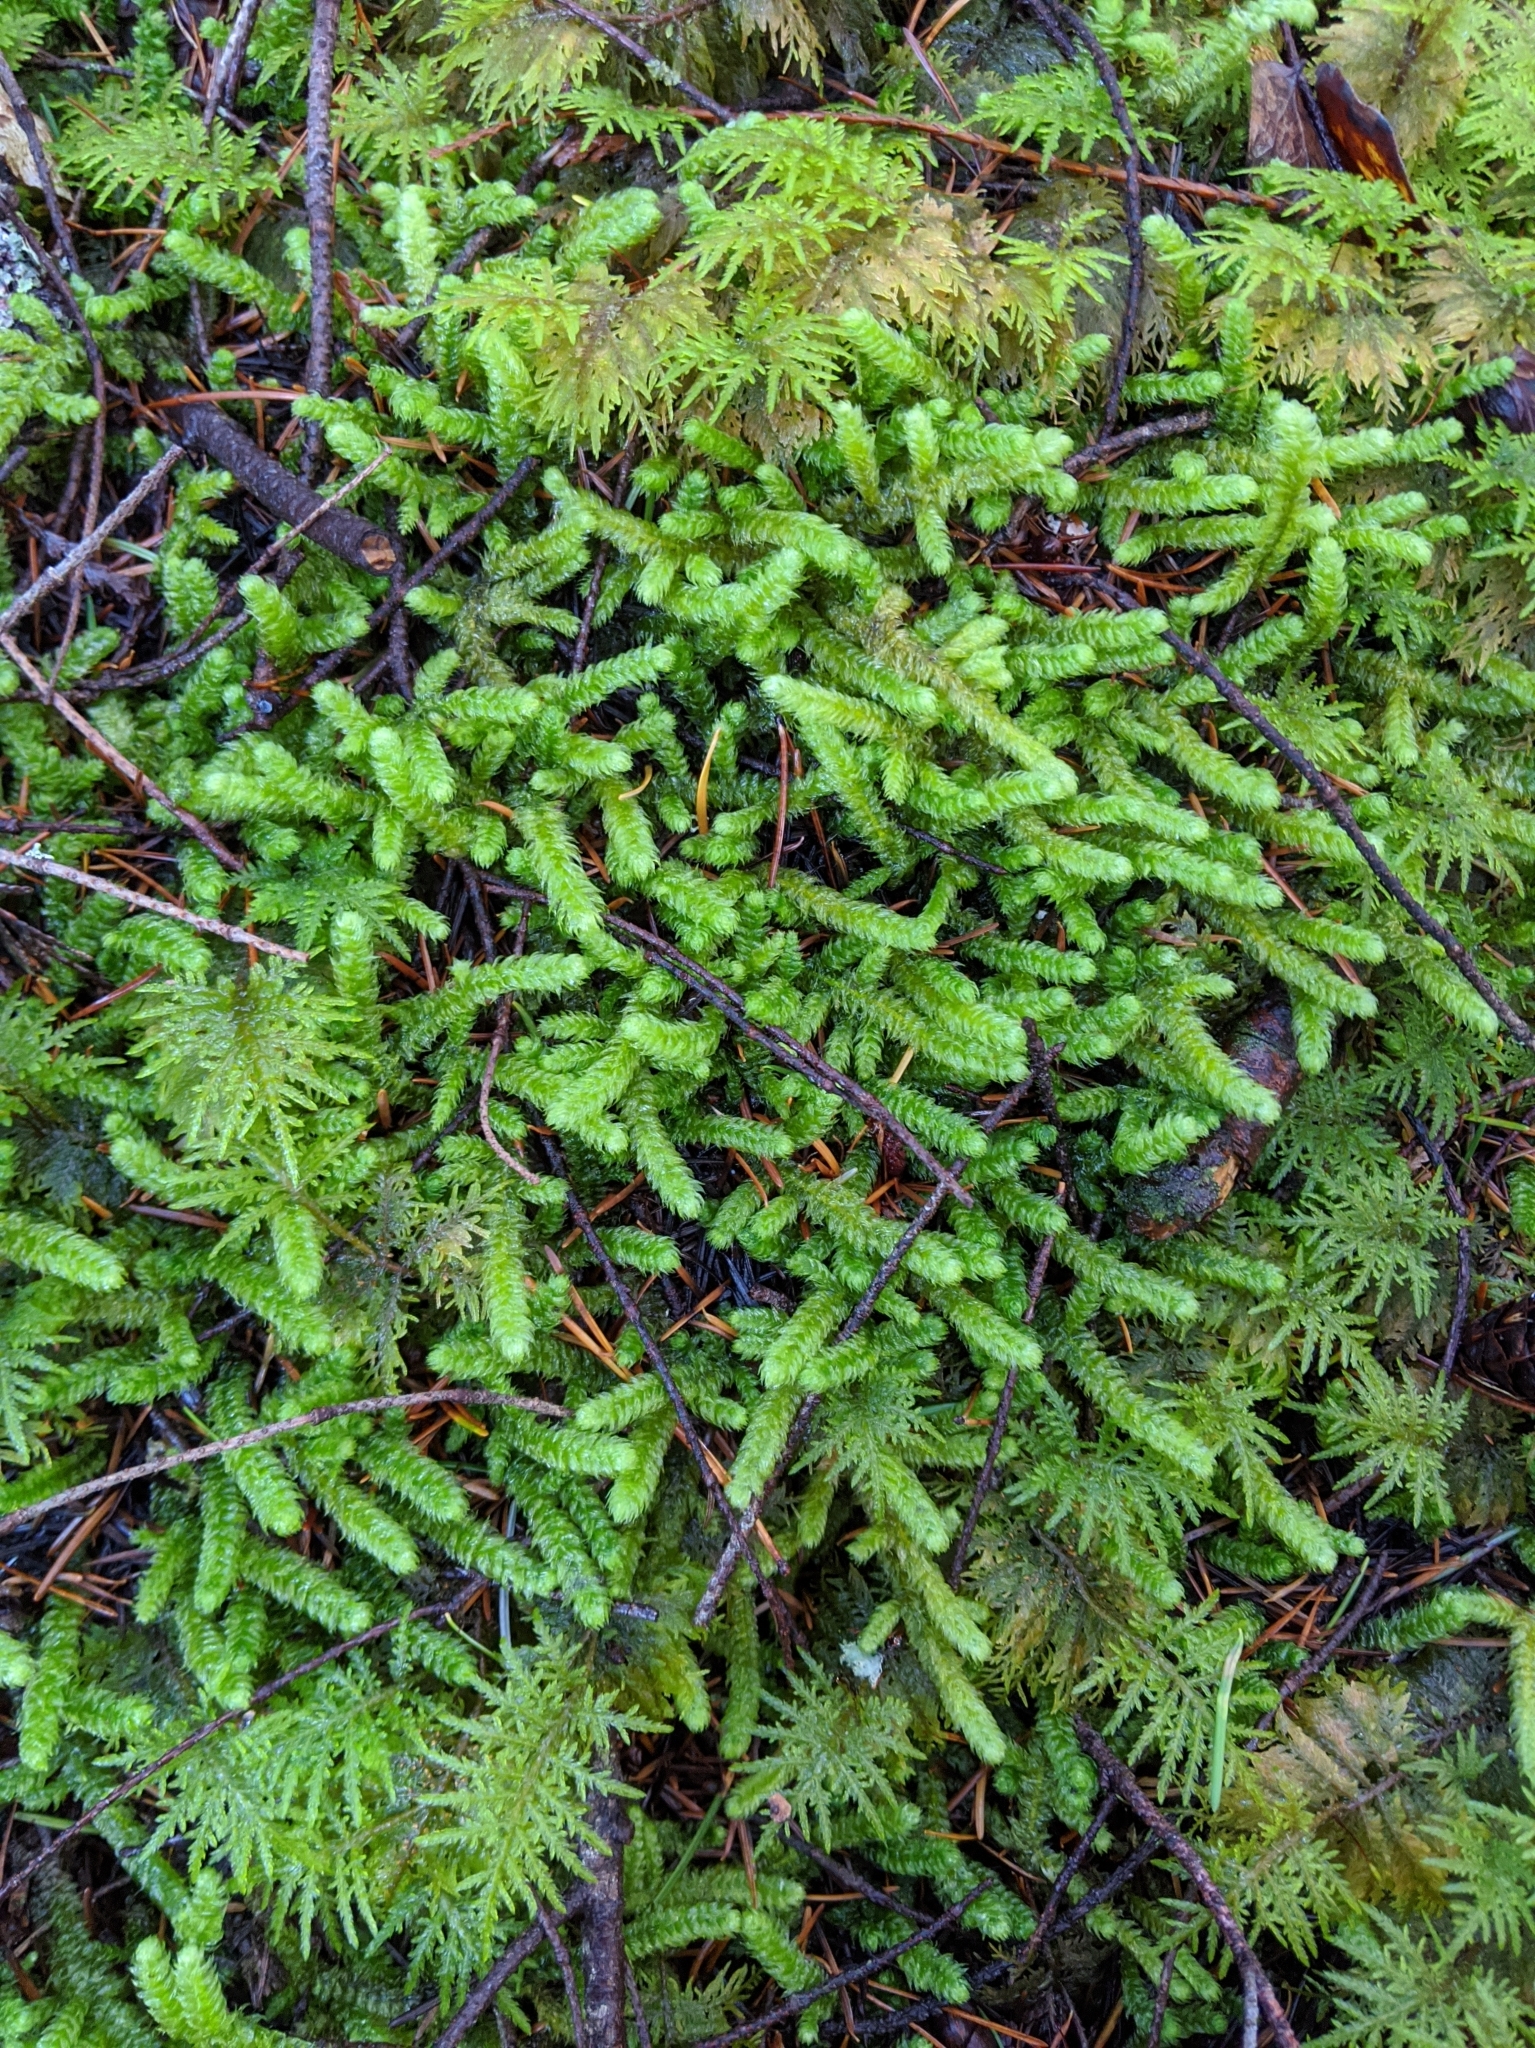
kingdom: Plantae
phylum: Bryophyta
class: Bryopsida
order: Hypnales
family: Hylocomiaceae
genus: Rhytidiopsis
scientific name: Rhytidiopsis robusta
